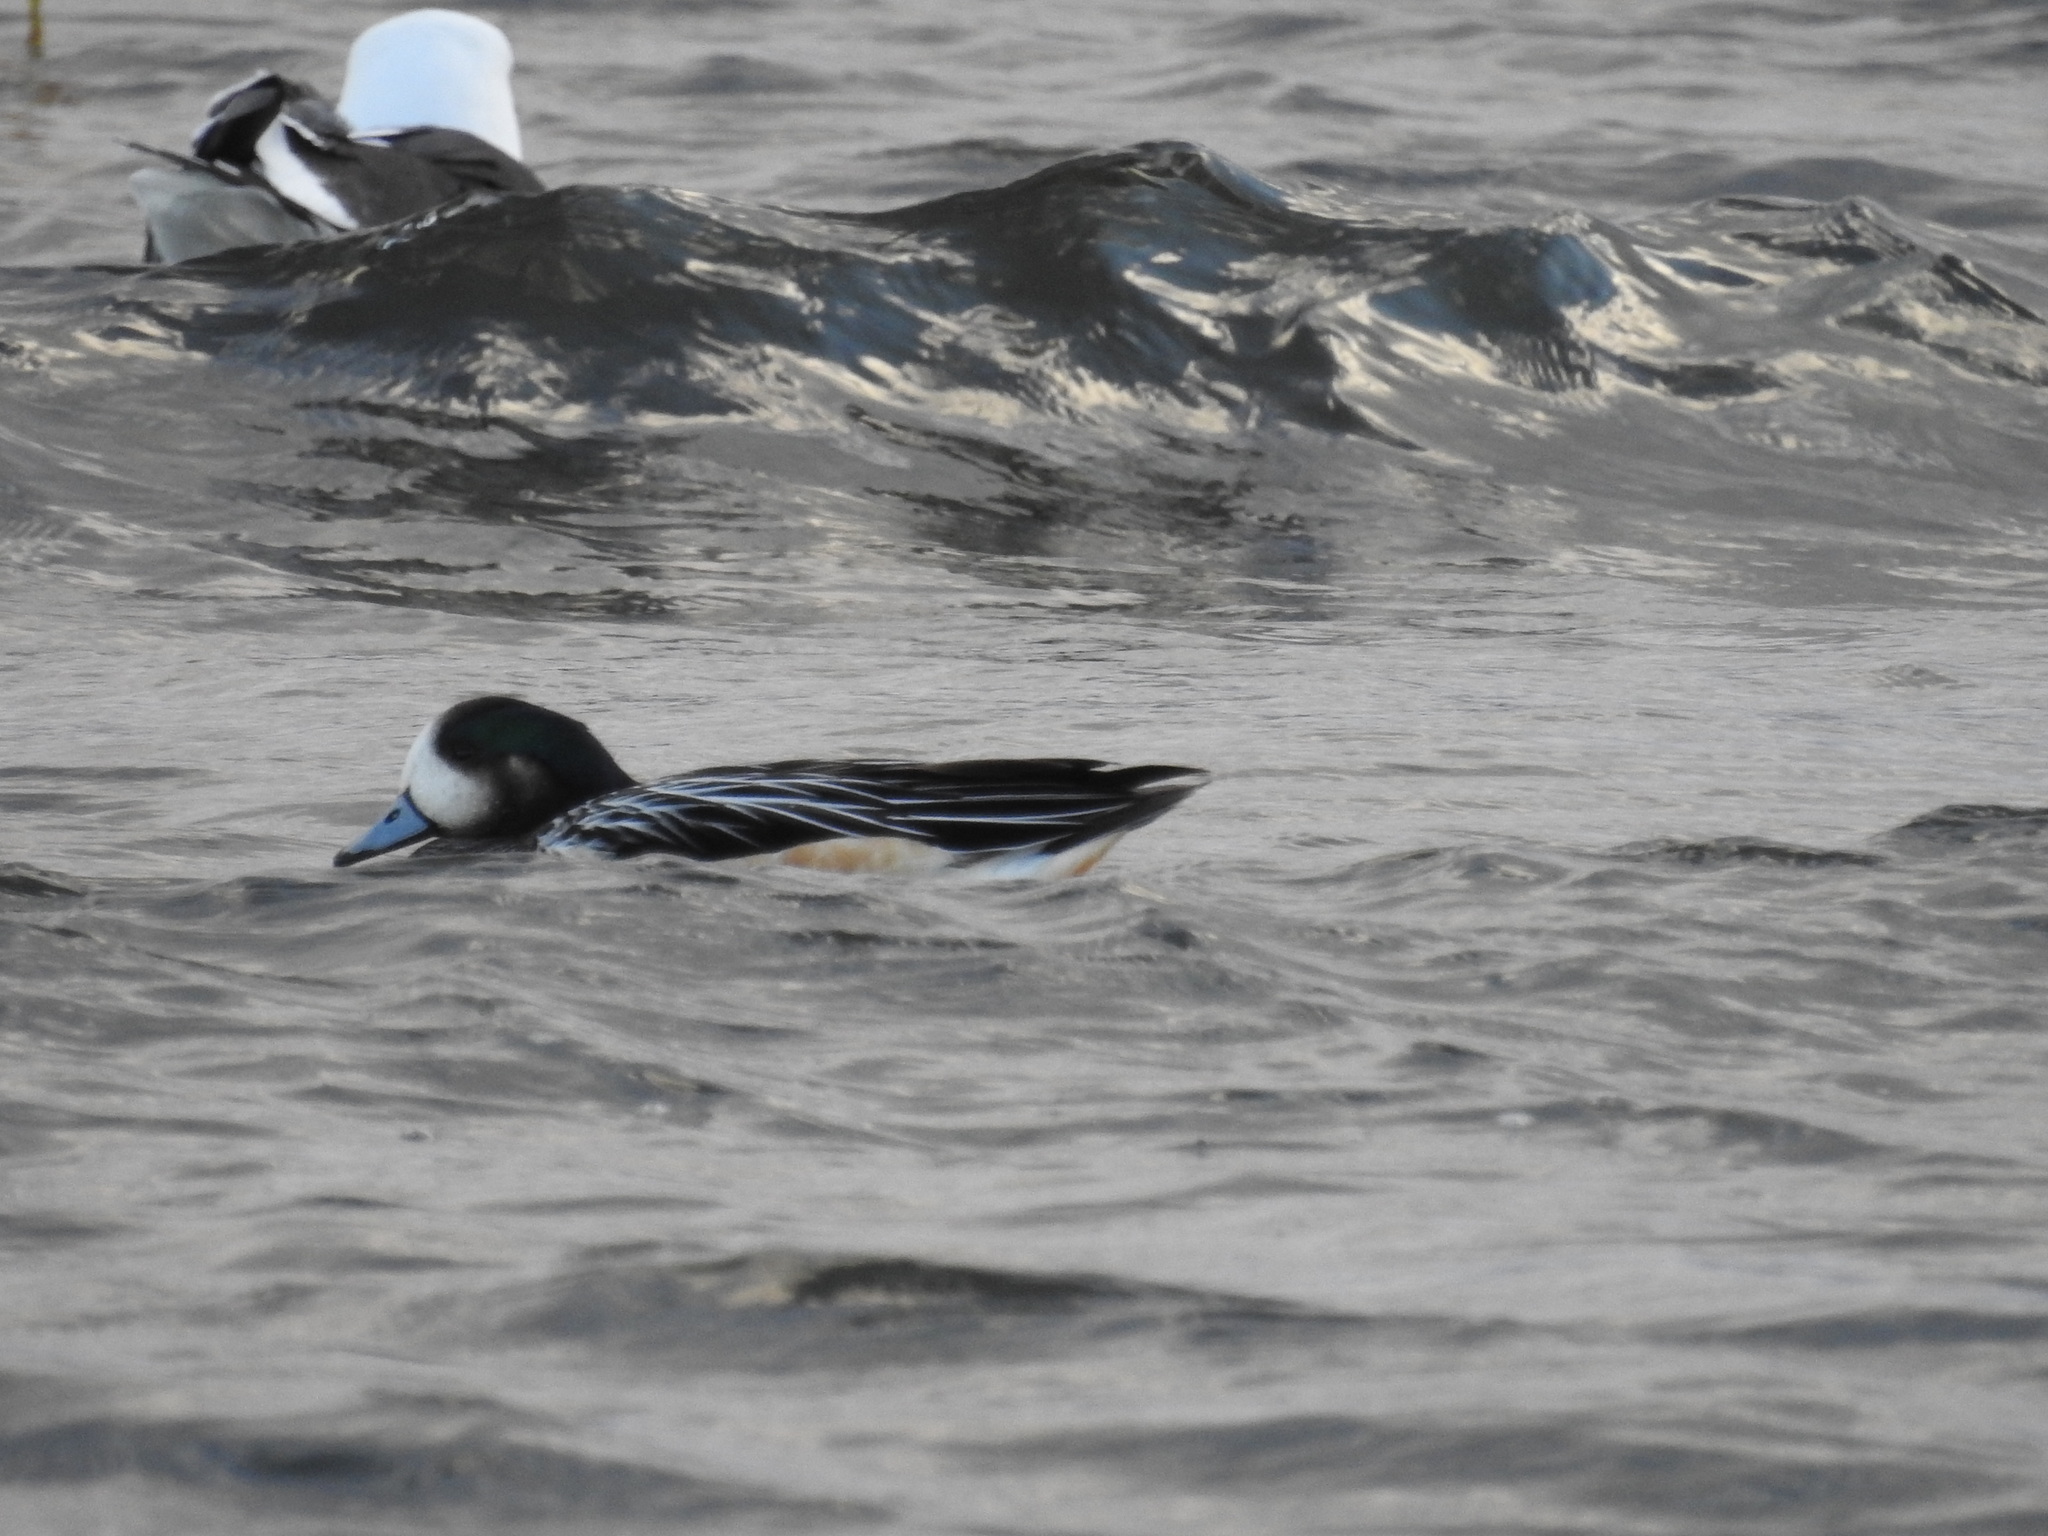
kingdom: Animalia
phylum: Chordata
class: Aves
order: Anseriformes
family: Anatidae
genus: Mareca
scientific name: Mareca sibilatrix
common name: Chiloe wigeon
